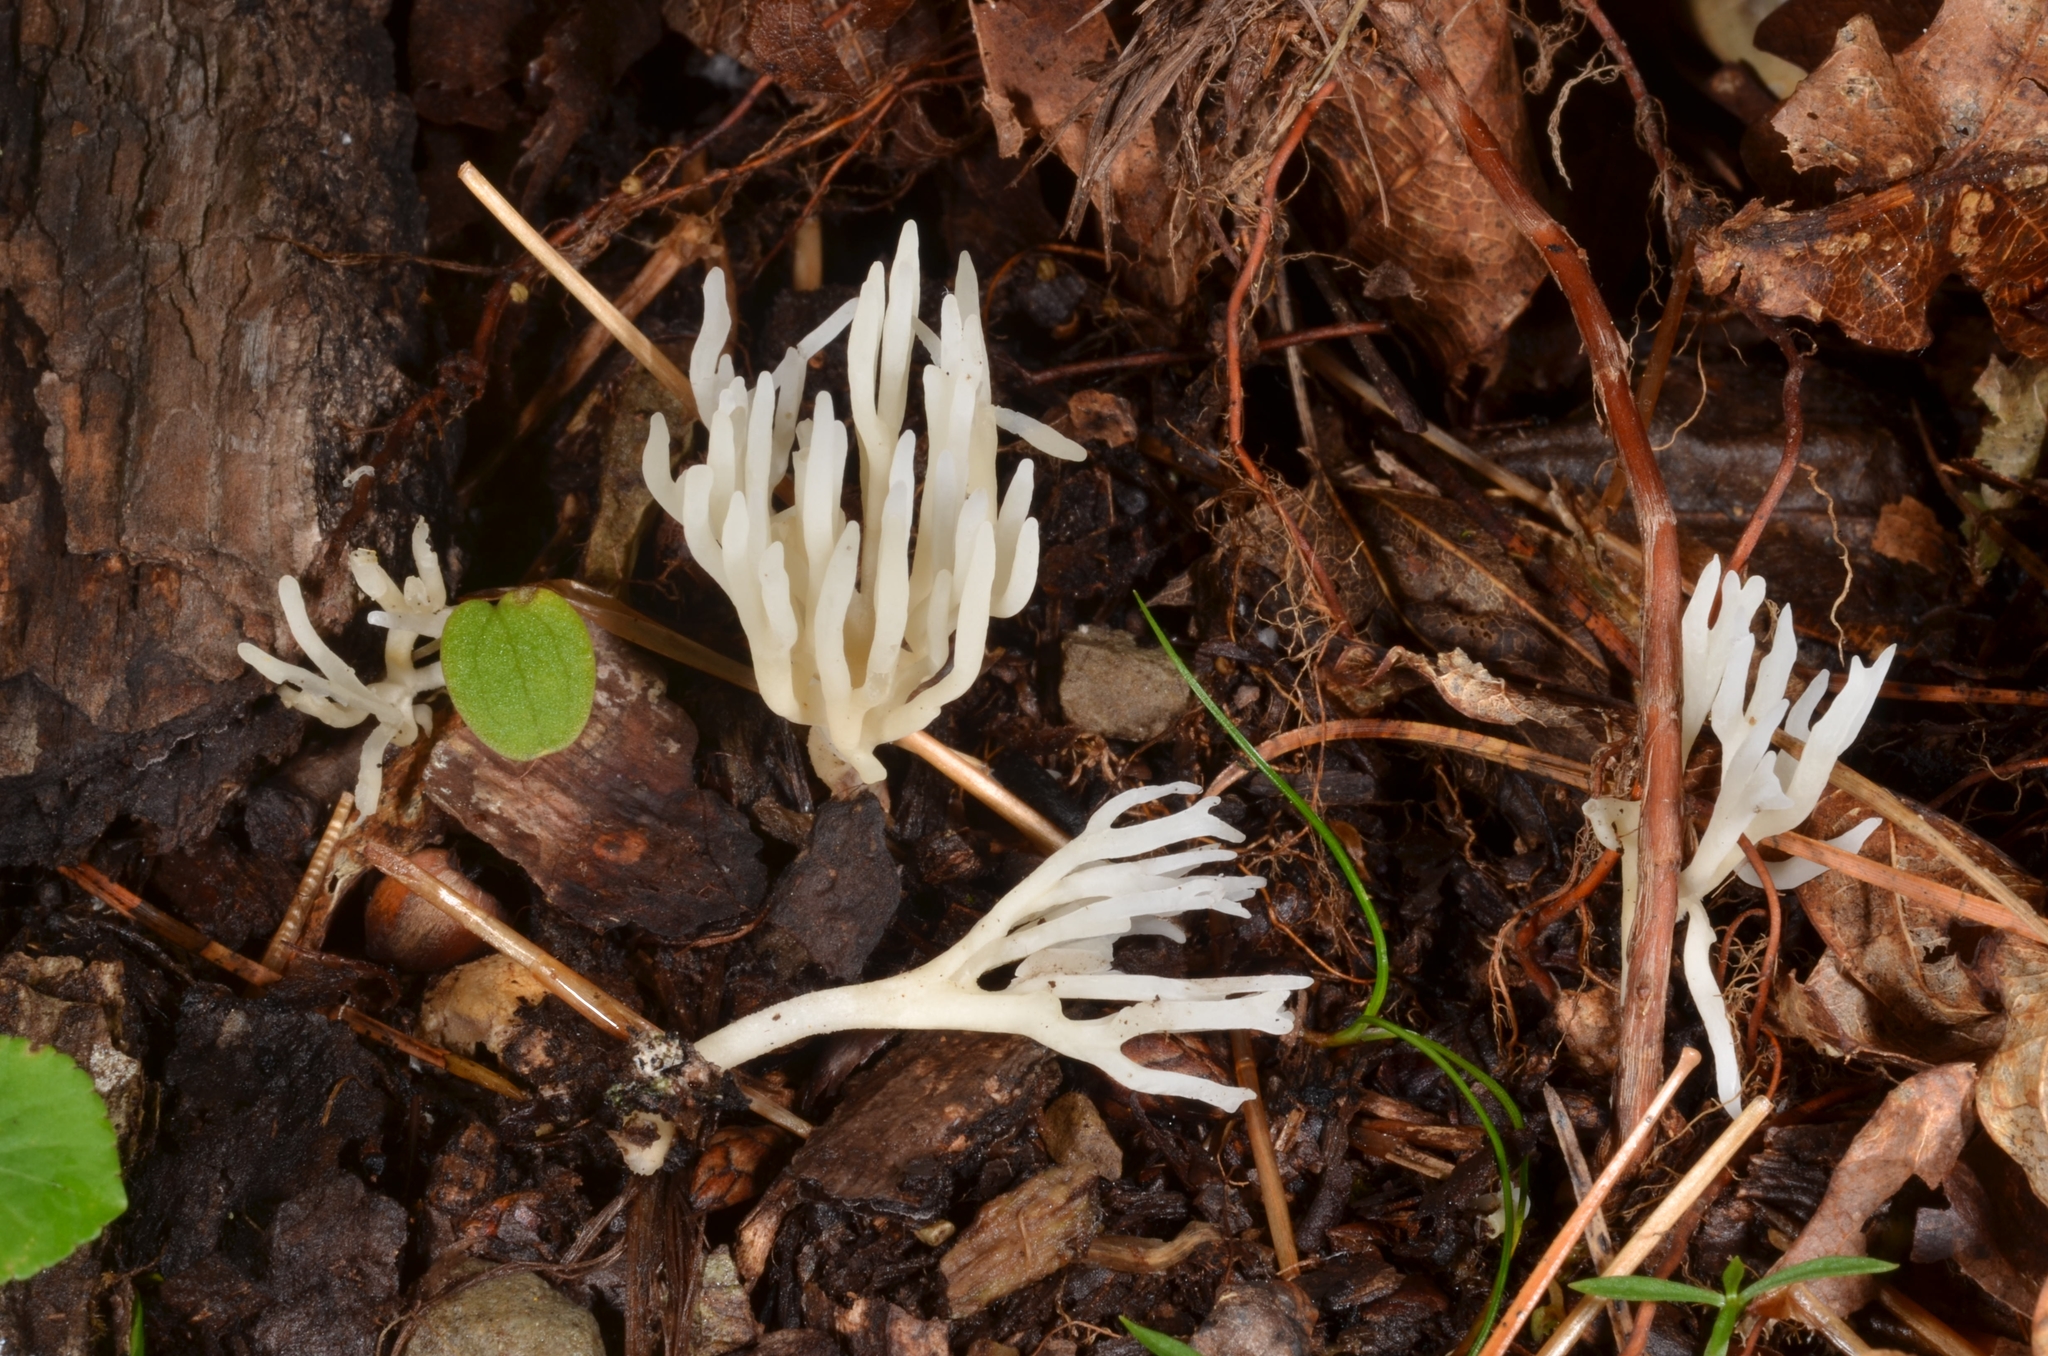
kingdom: Fungi
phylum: Basidiomycota
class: Agaricomycetes
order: Agaricales
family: Clavariaceae
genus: Ramariopsis
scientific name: Ramariopsis kunzei
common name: Ivory coral
